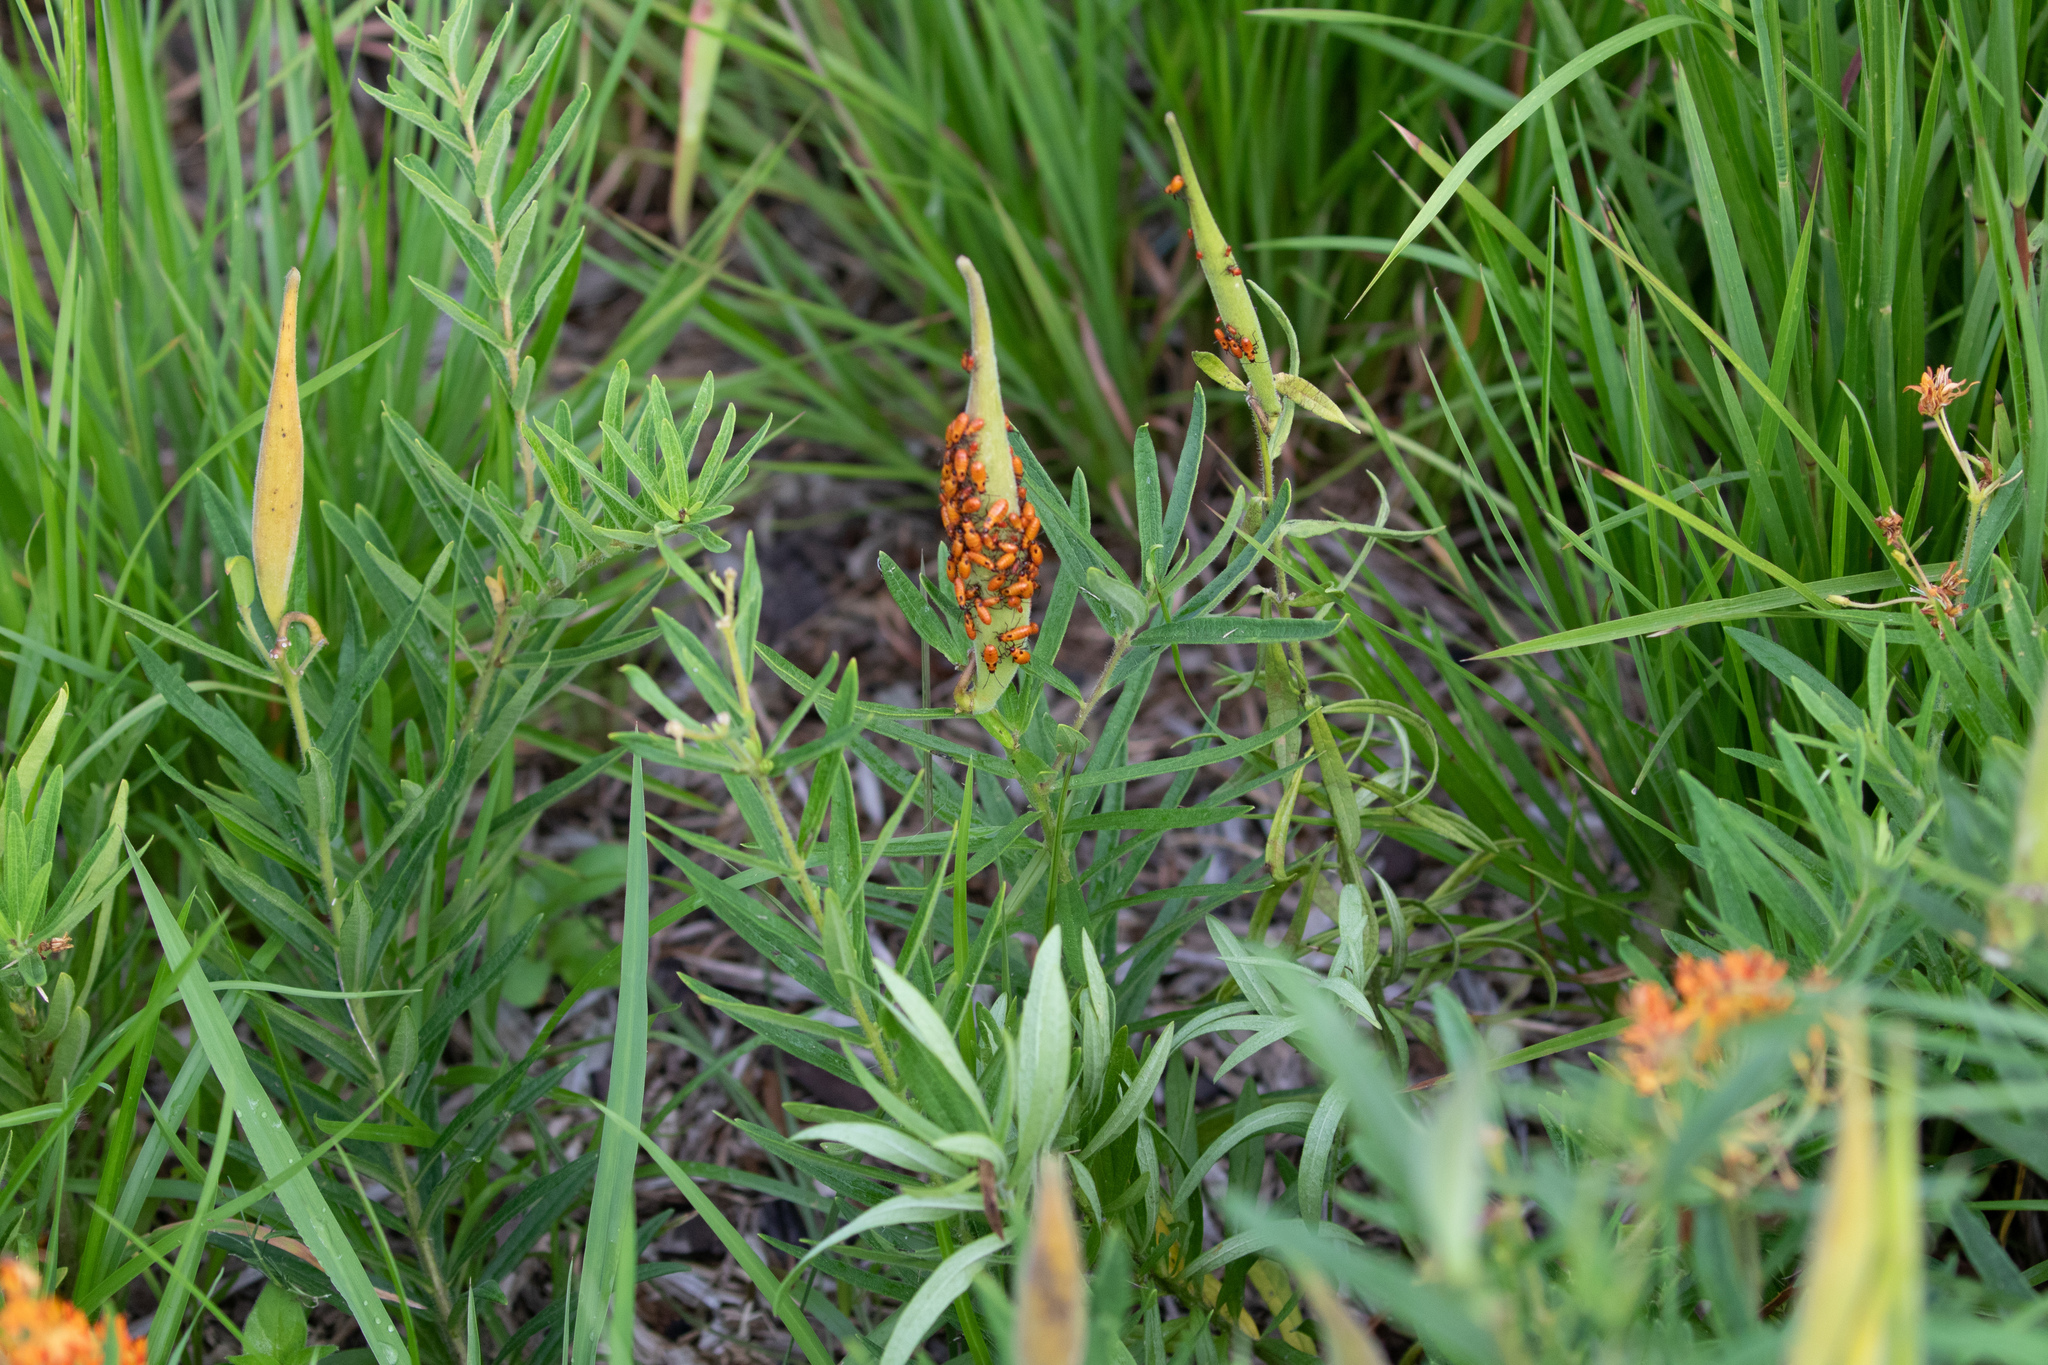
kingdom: Animalia
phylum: Arthropoda
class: Insecta
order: Hemiptera
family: Lygaeidae
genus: Oncopeltus
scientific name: Oncopeltus fasciatus
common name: Large milkweed bug
